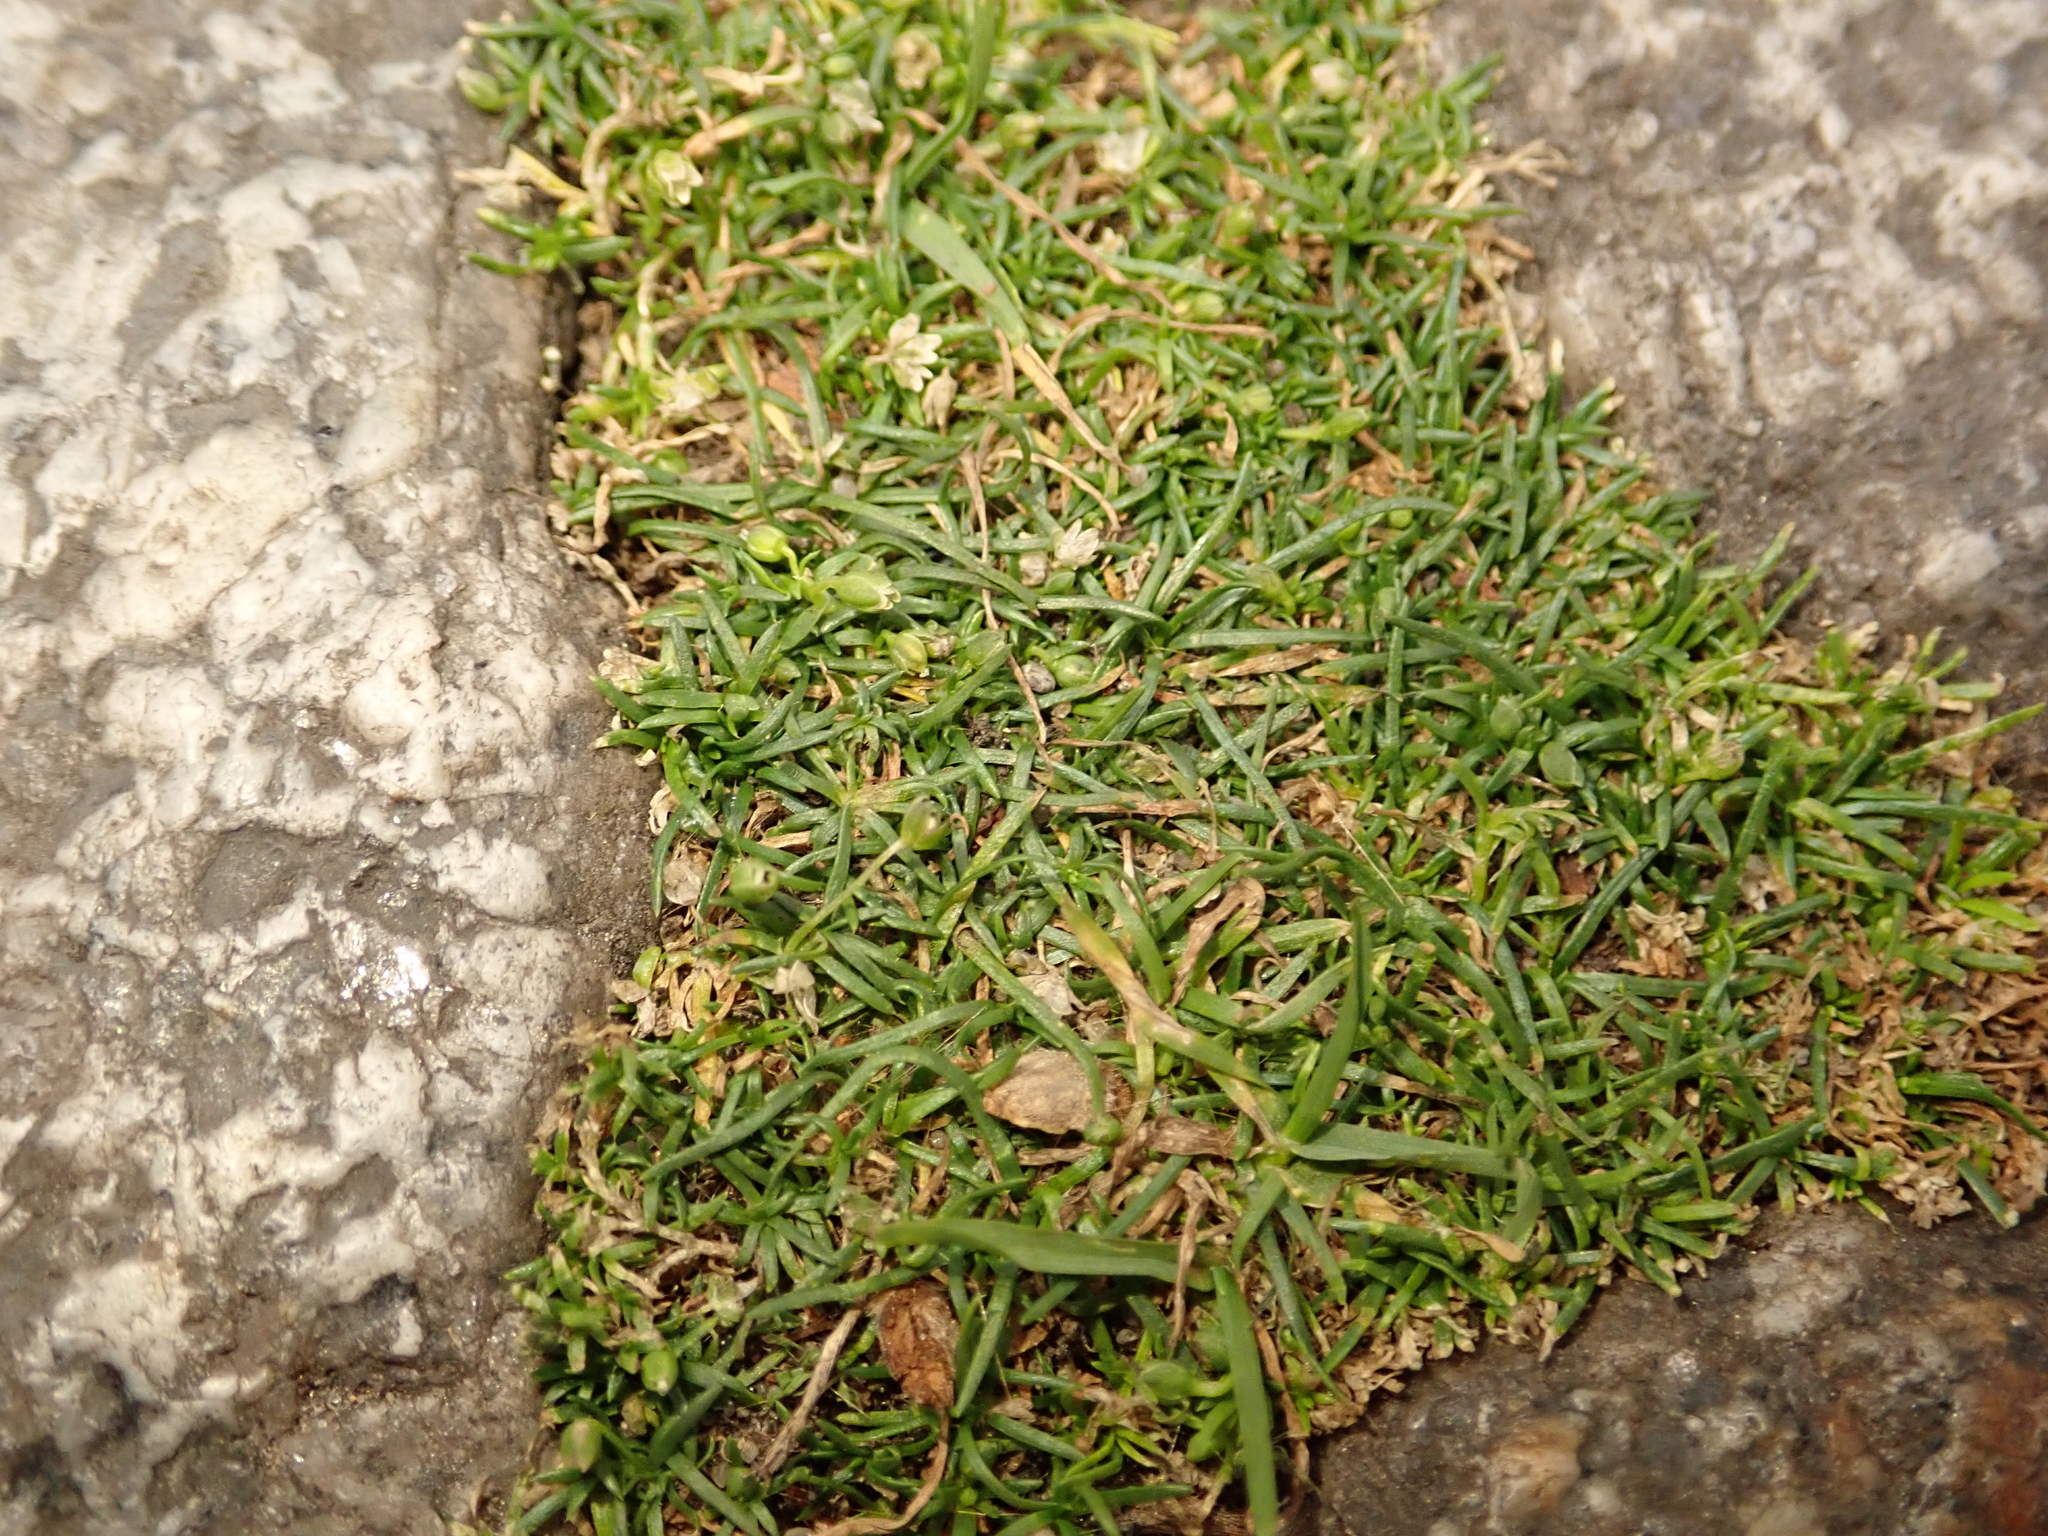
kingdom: Plantae
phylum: Tracheophyta
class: Magnoliopsida
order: Caryophyllales
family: Caryophyllaceae
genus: Sagina
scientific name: Sagina procumbens
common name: Procumbent pearlwort
